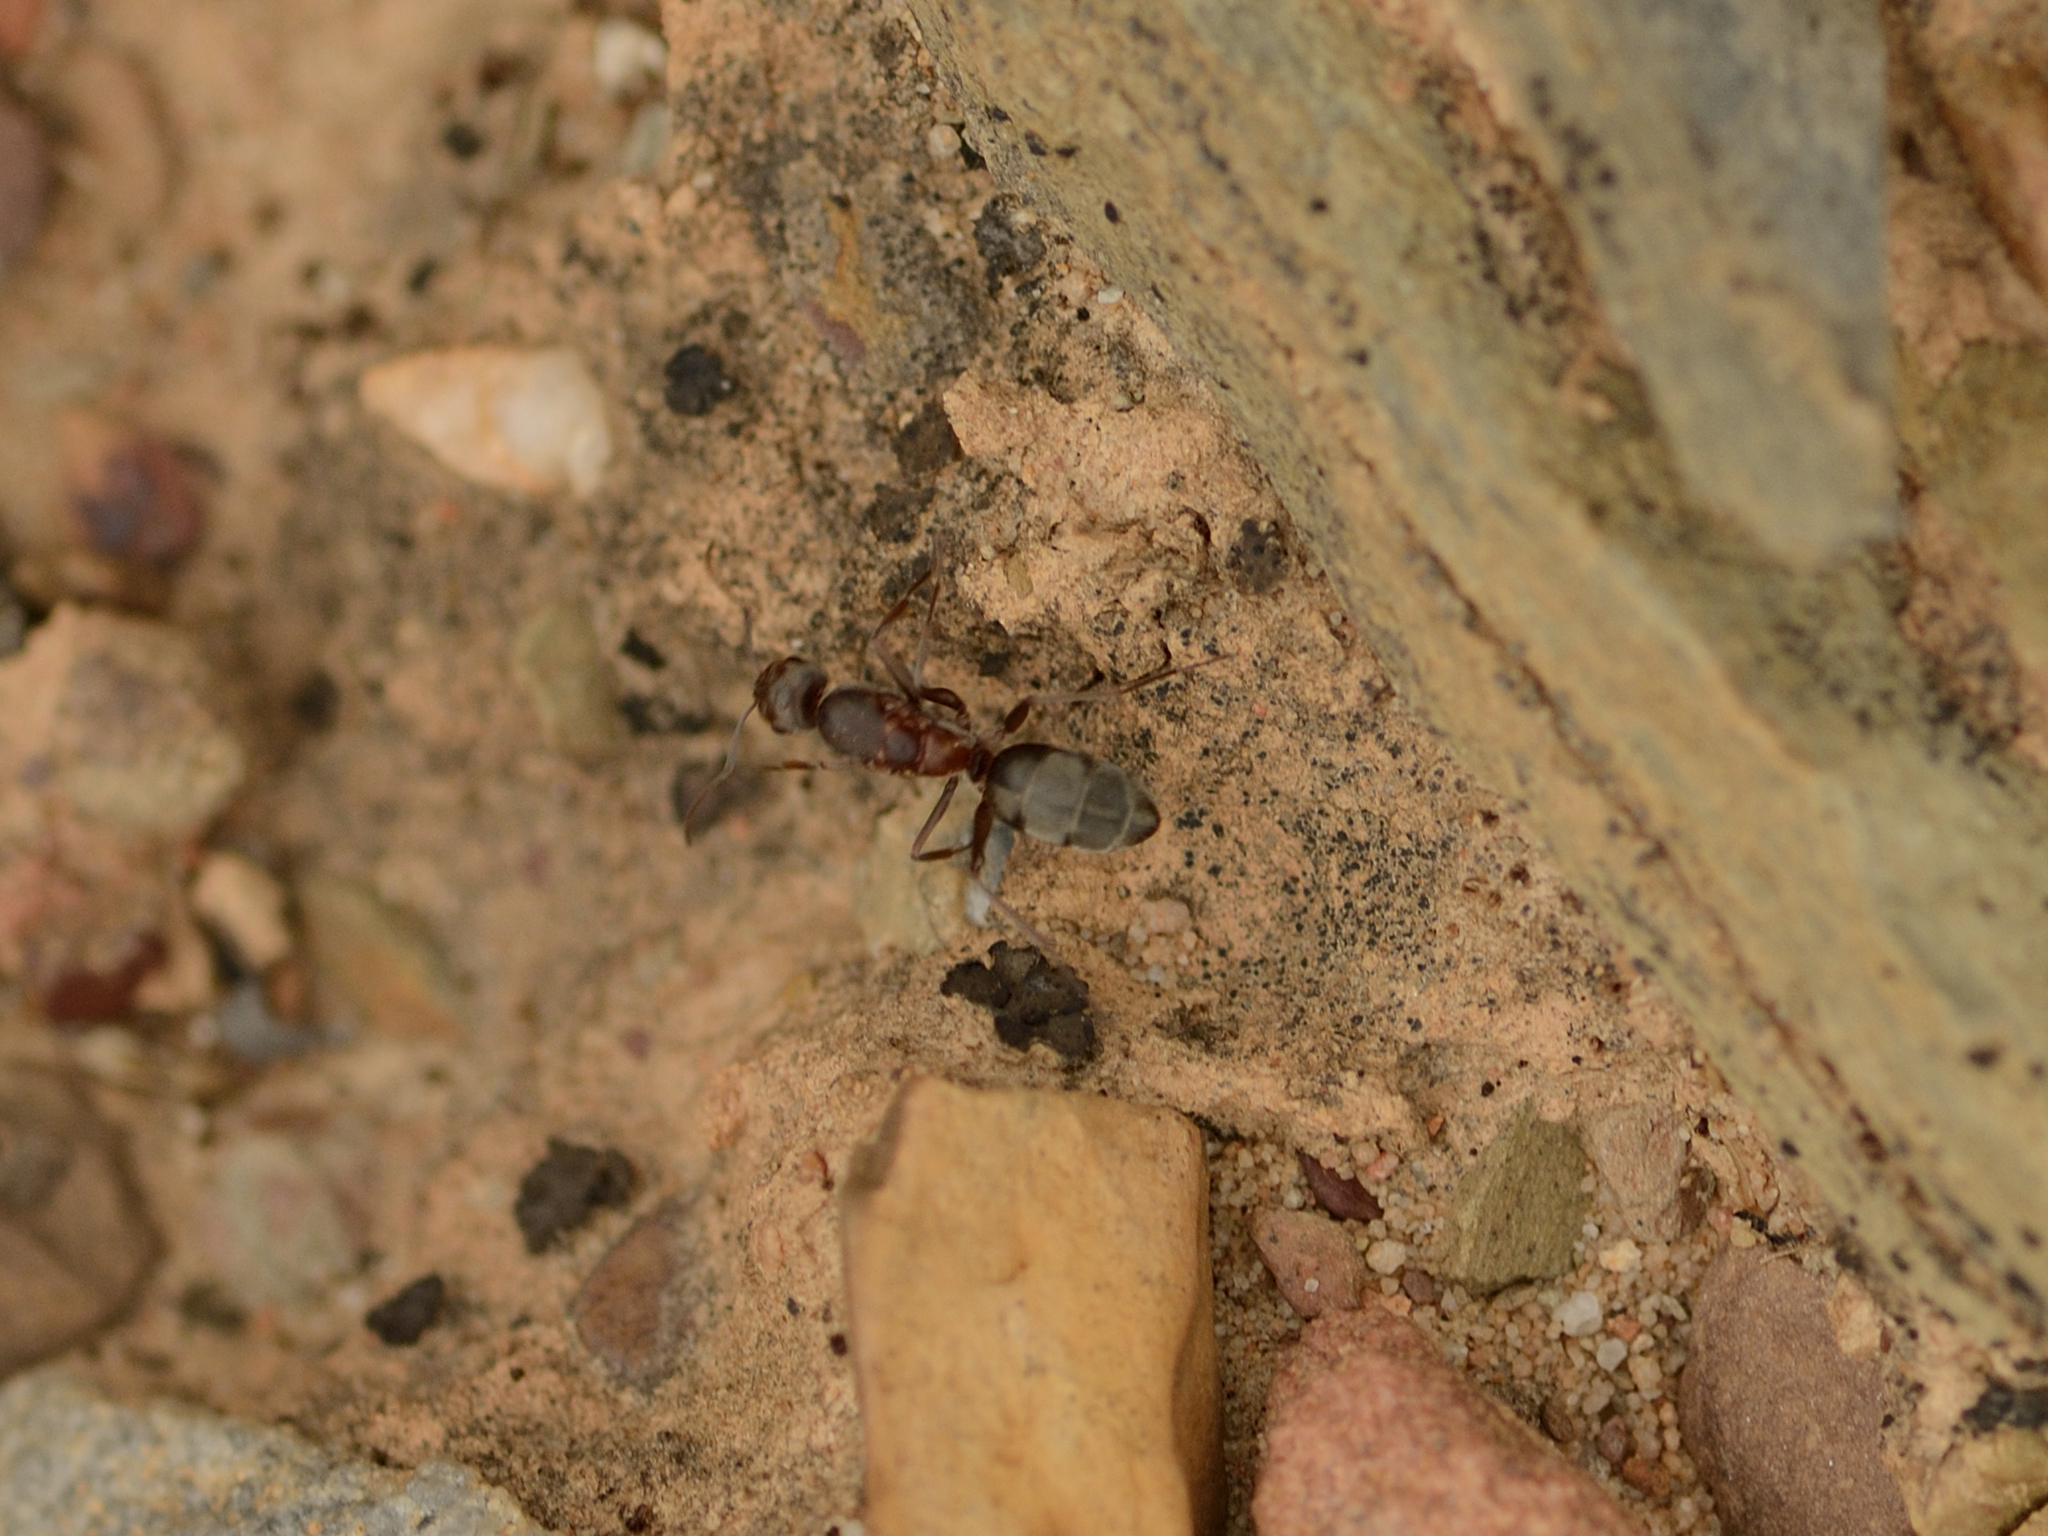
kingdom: Animalia
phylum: Arthropoda
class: Insecta
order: Hymenoptera
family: Formicidae
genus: Camponotus
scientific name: Camponotus vestitus
